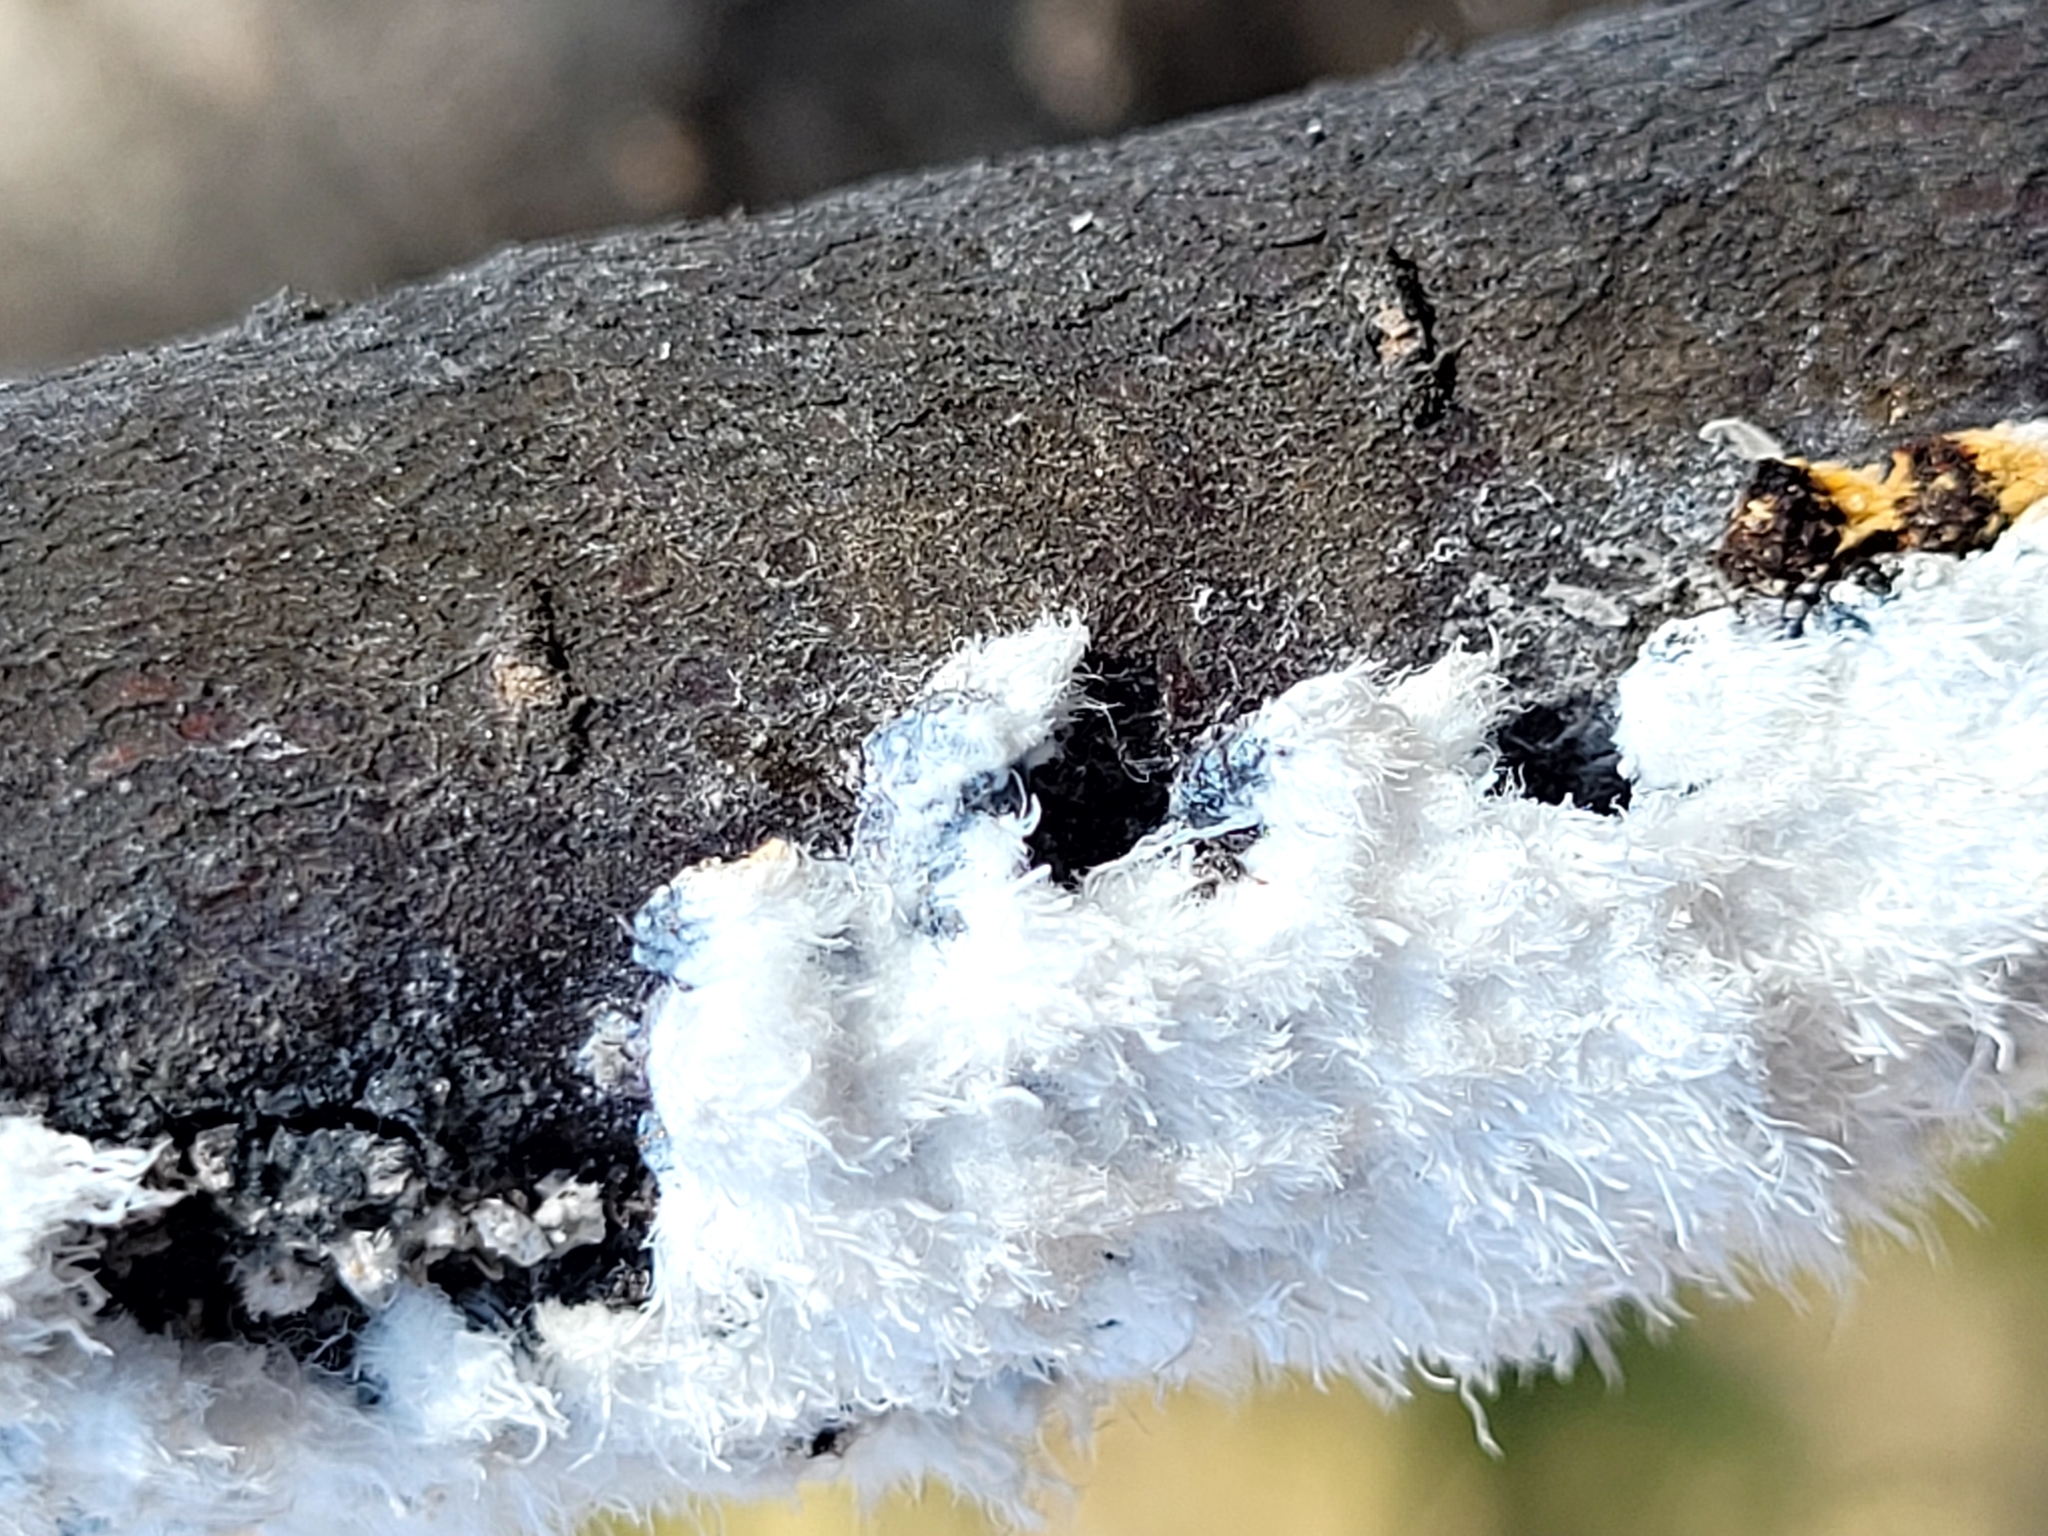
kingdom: Animalia
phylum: Arthropoda
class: Insecta
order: Hemiptera
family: Aphididae
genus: Prociphilus
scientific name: Prociphilus tessellatus
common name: Woolly alder aphid
